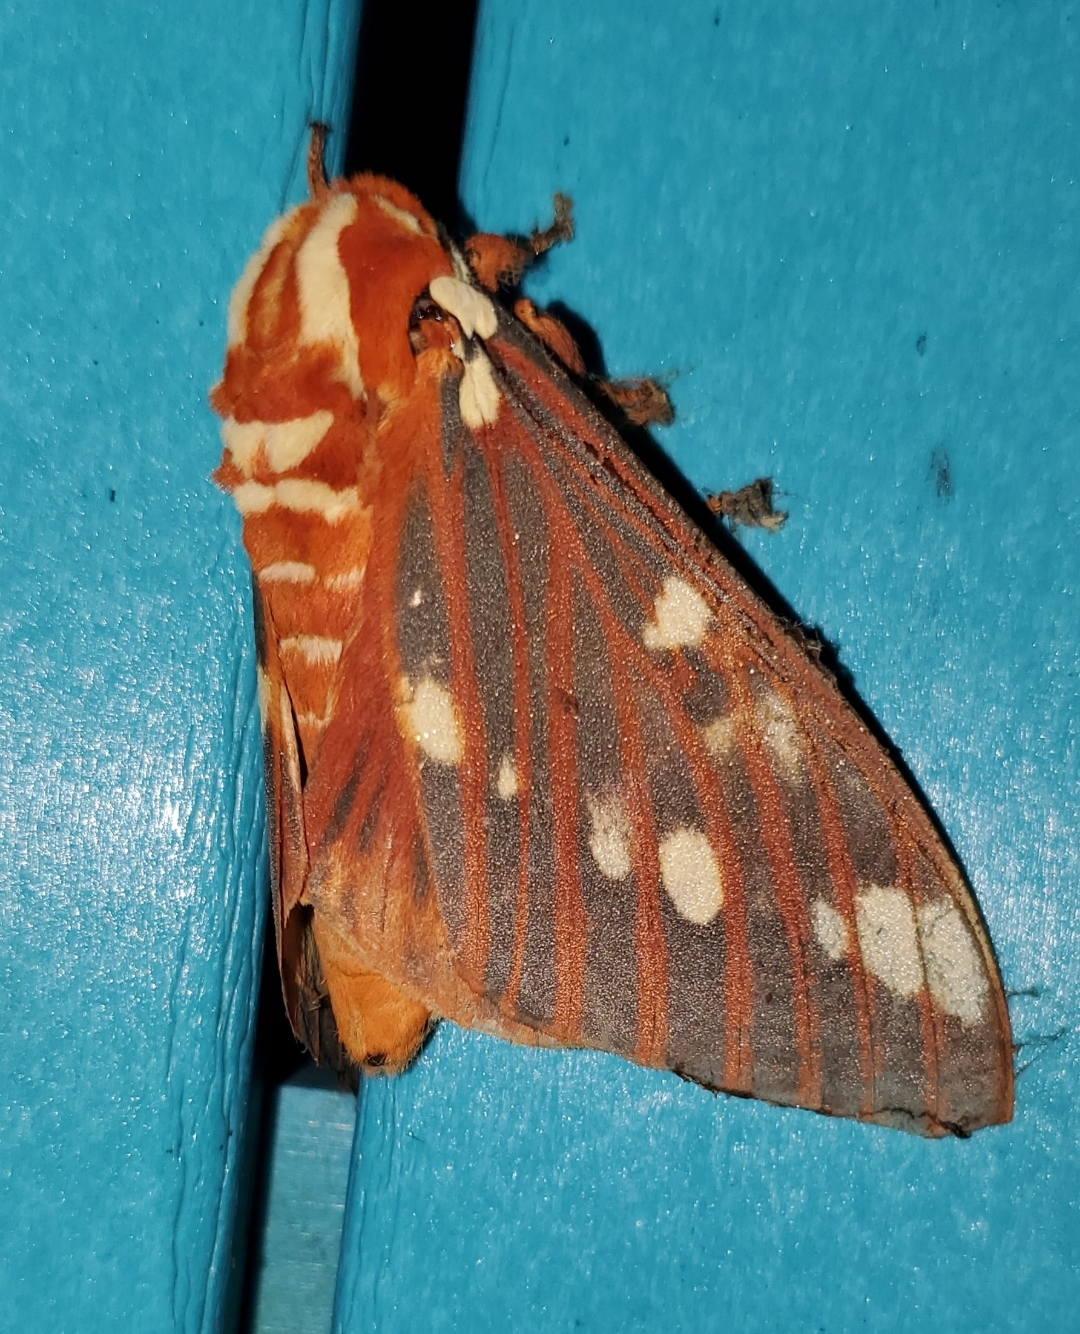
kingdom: Animalia
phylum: Arthropoda
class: Insecta
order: Lepidoptera
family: Saturniidae
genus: Citheronia
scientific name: Citheronia regalis
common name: Hickory horned devil
